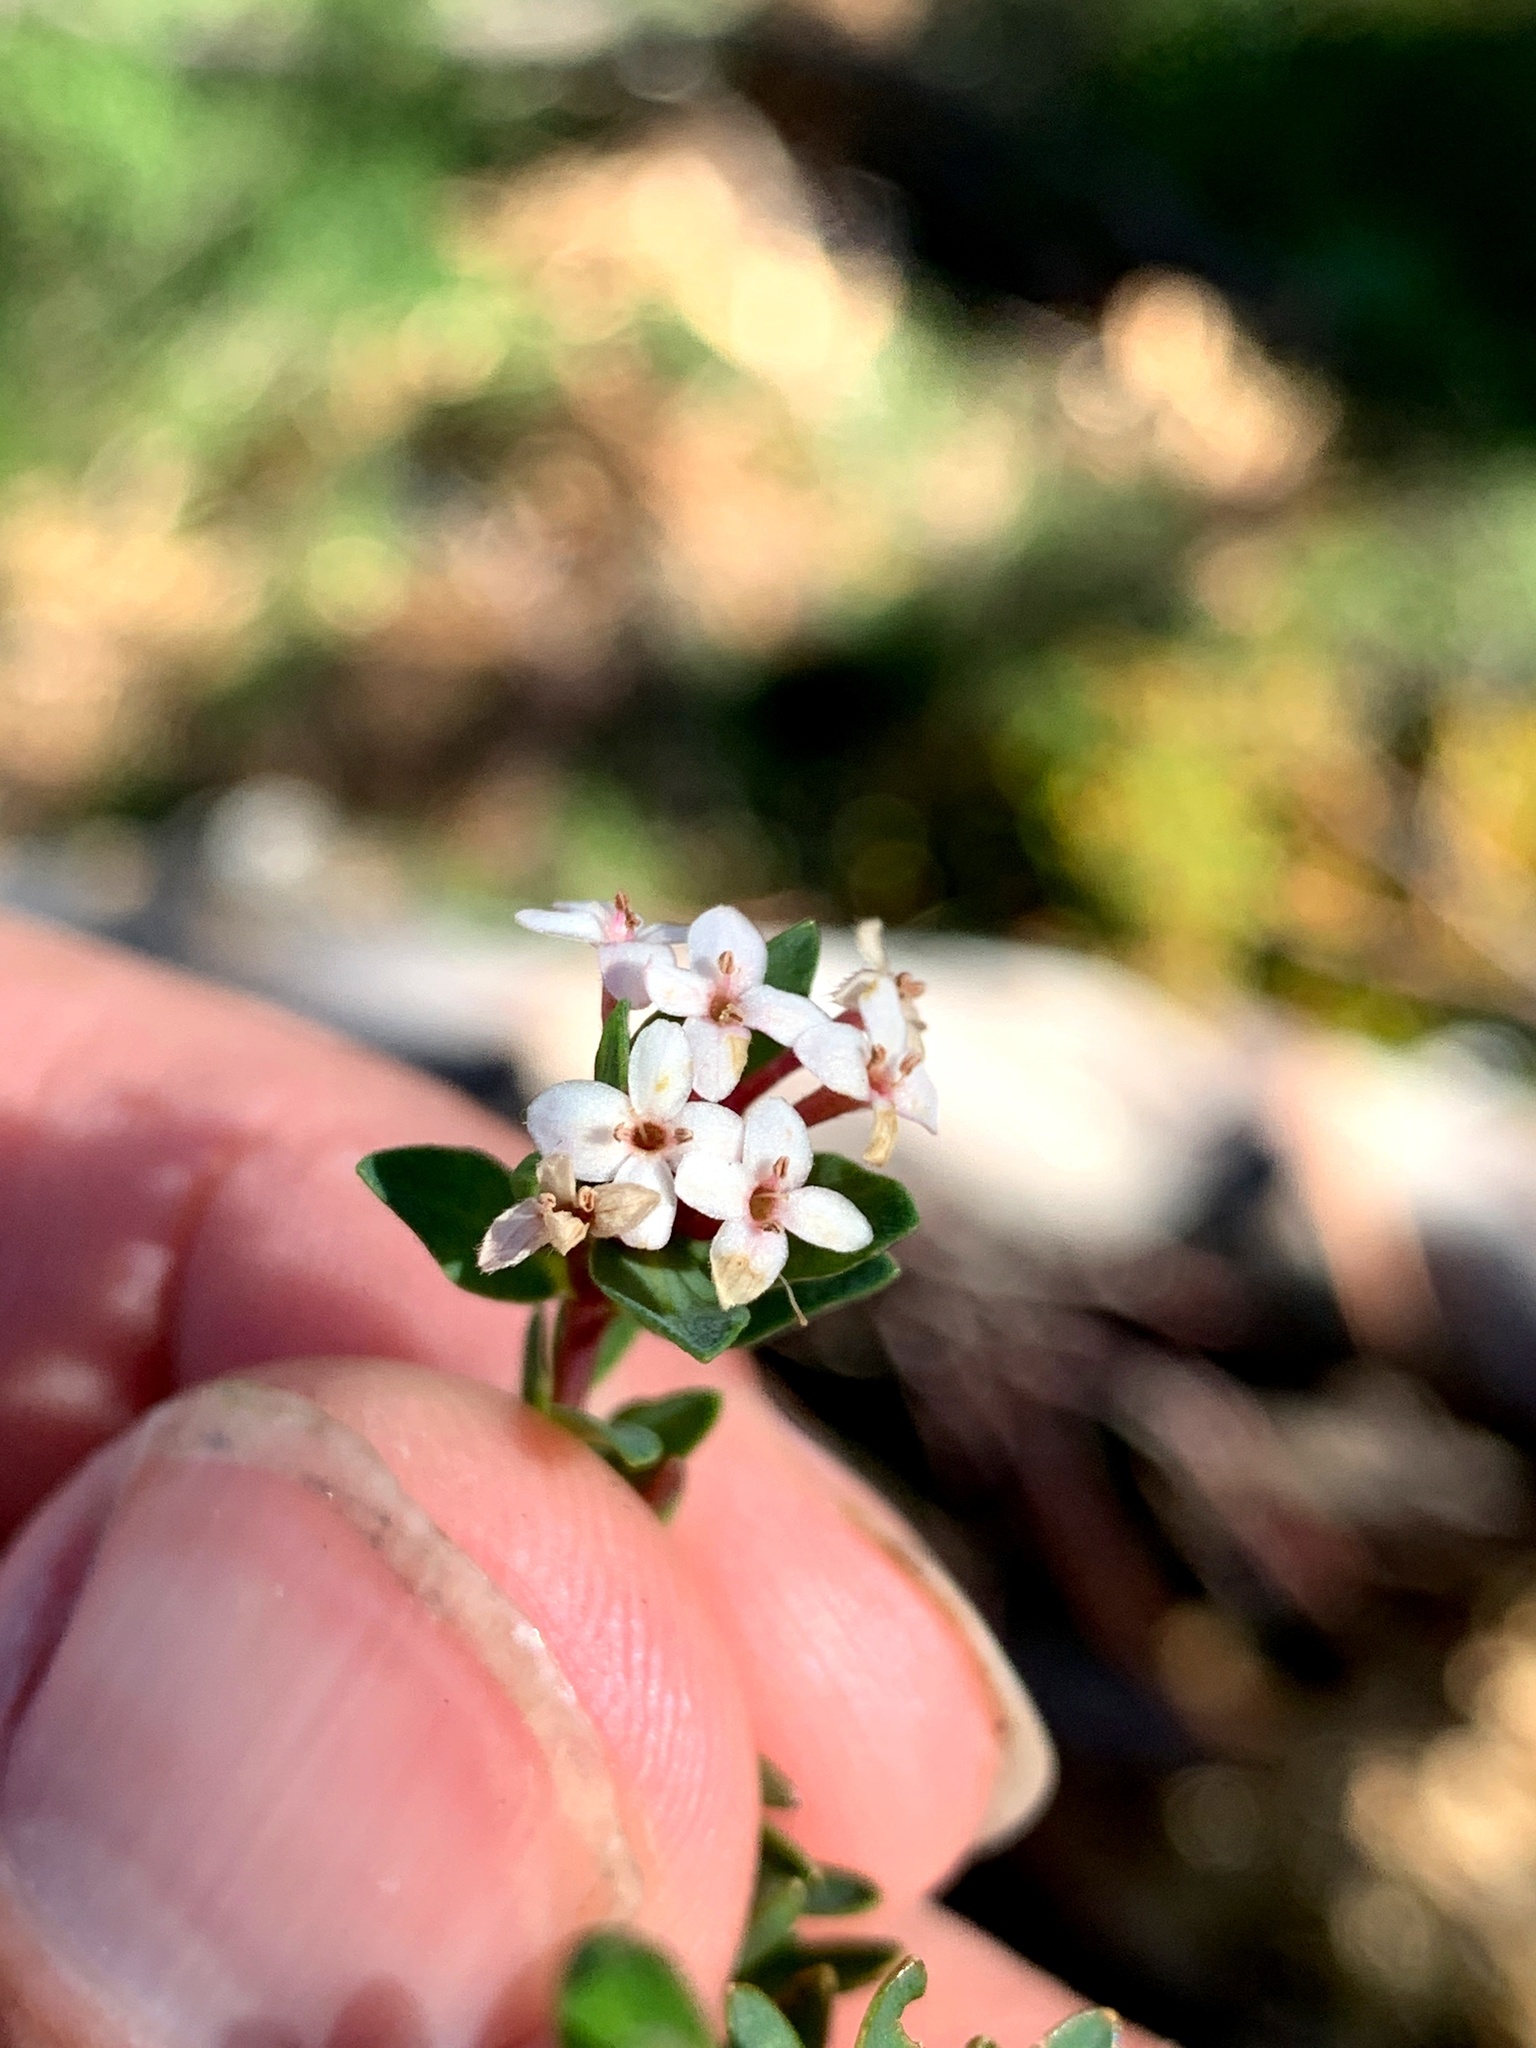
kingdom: Plantae
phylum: Tracheophyta
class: Magnoliopsida
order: Malvales
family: Thymelaeaceae
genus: Pimelea
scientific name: Pimelea alpina
